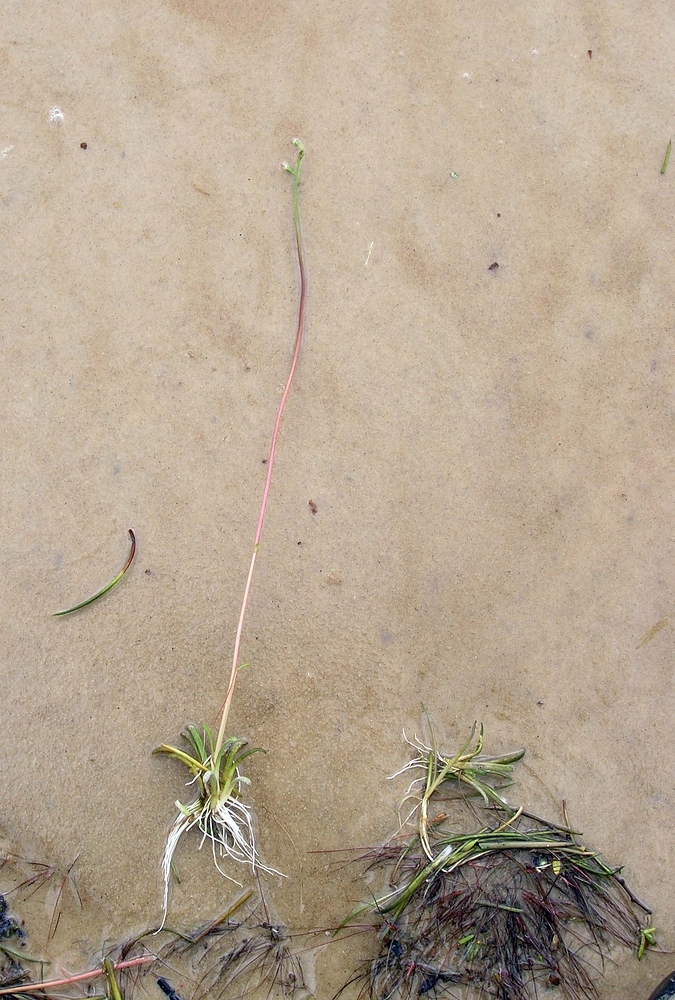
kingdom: Plantae
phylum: Tracheophyta
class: Magnoliopsida
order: Asterales
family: Campanulaceae
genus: Lobelia
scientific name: Lobelia dortmanna
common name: Water lobelia
